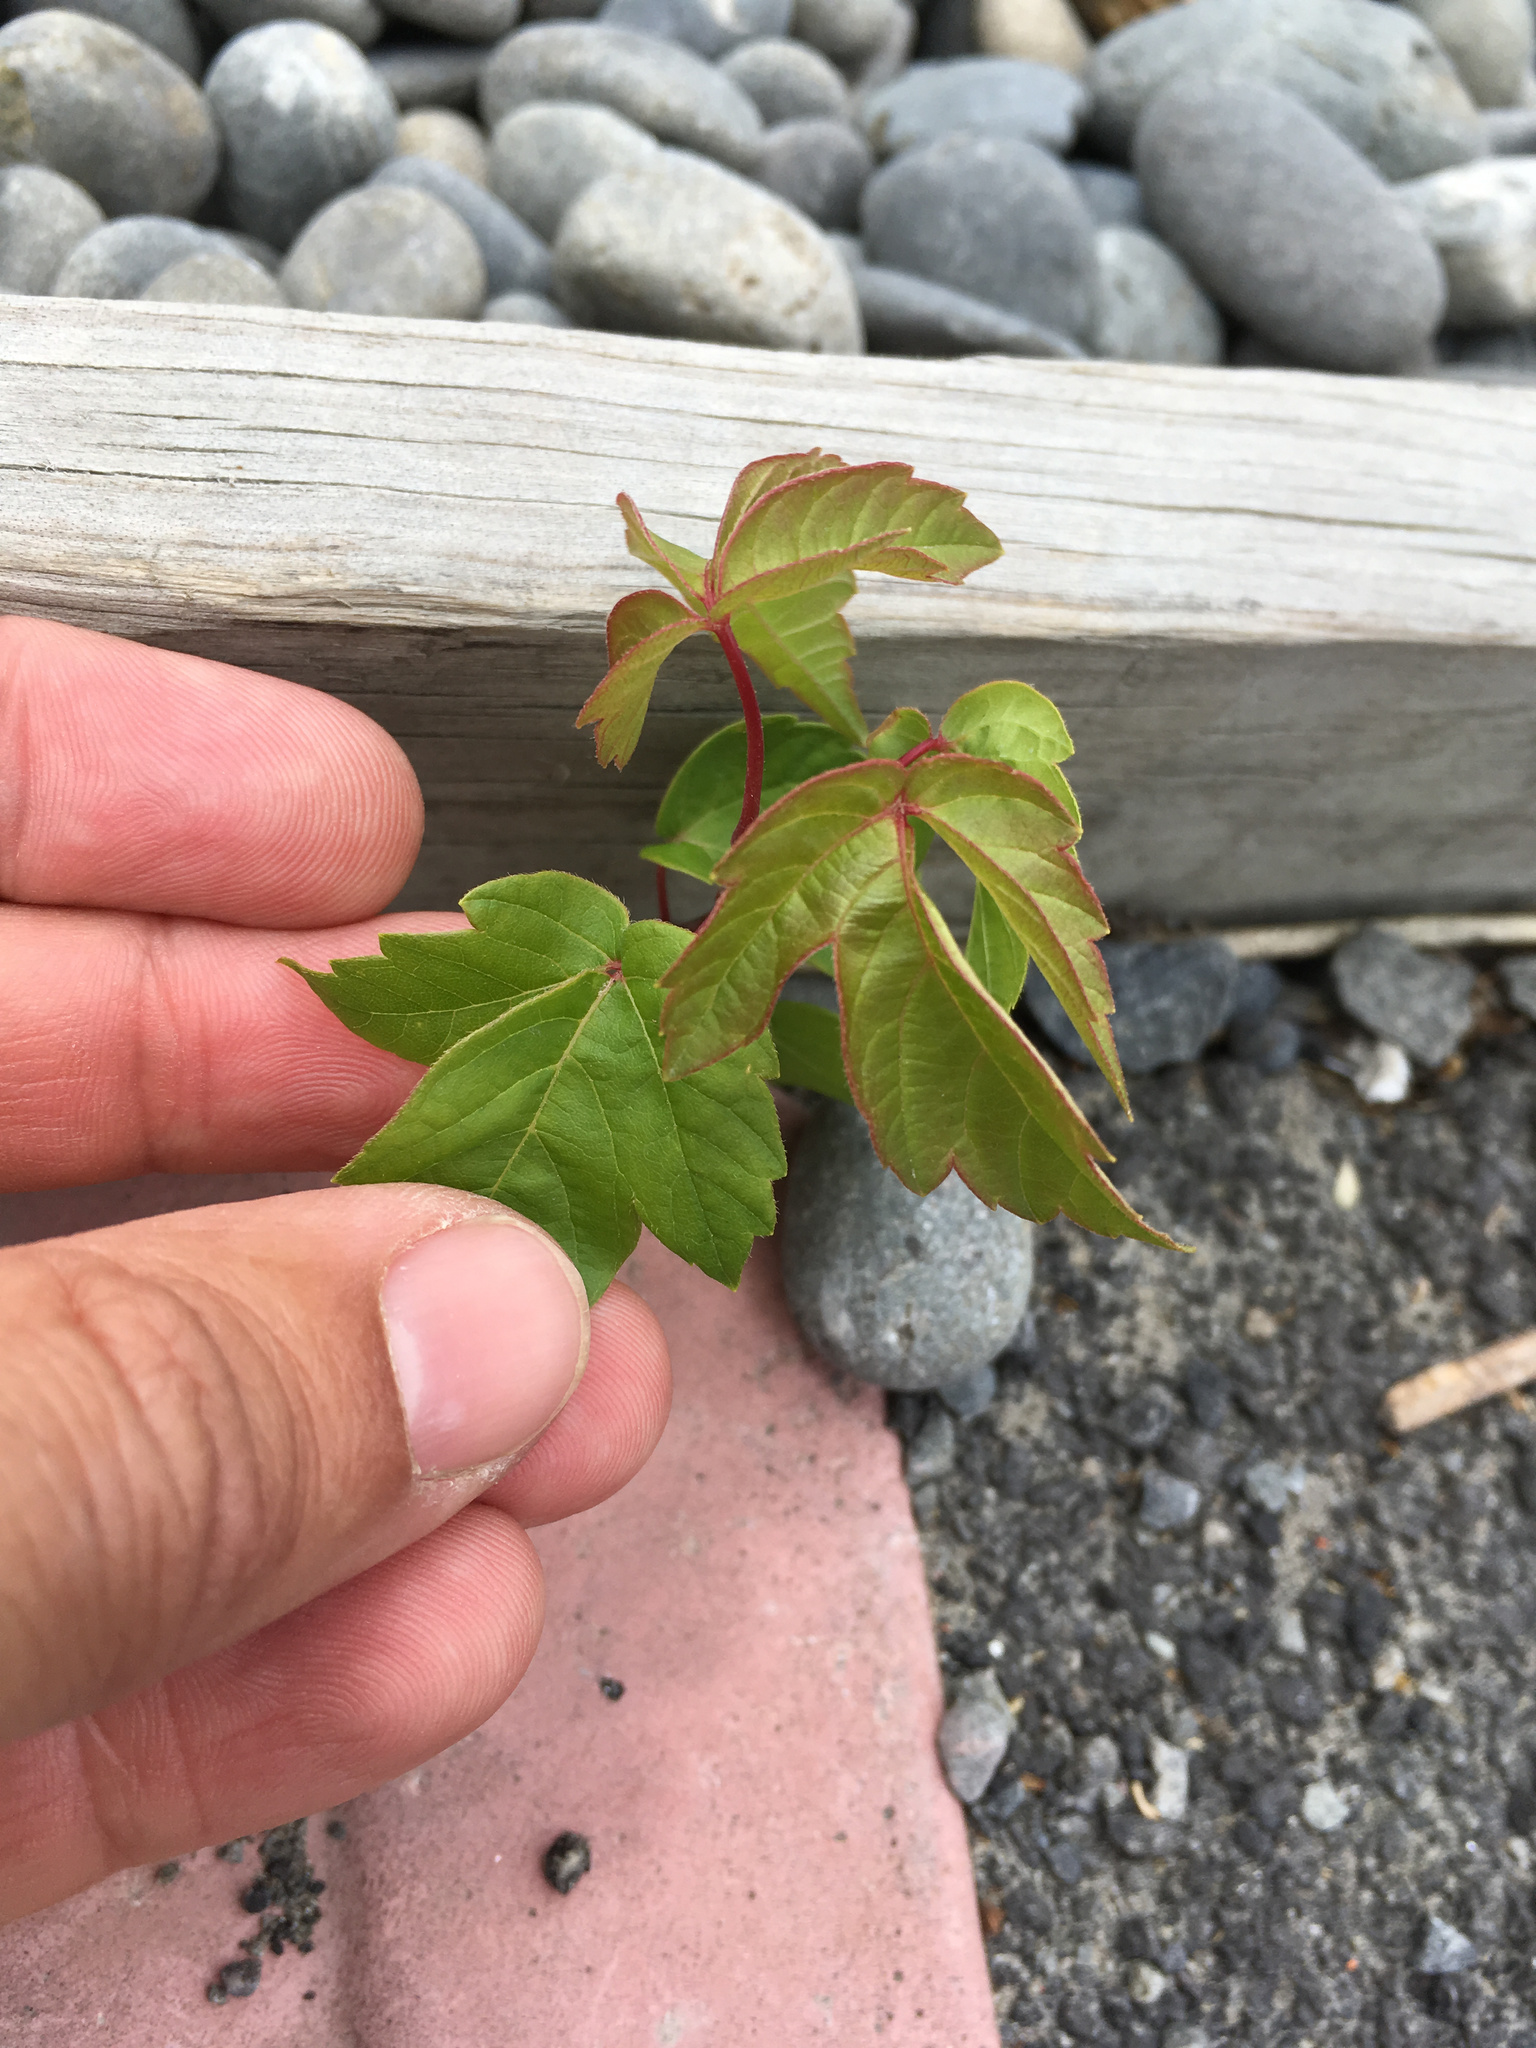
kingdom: Plantae
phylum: Tracheophyta
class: Magnoliopsida
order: Sapindales
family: Sapindaceae
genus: Acer
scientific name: Acer negundo
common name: Ashleaf maple
